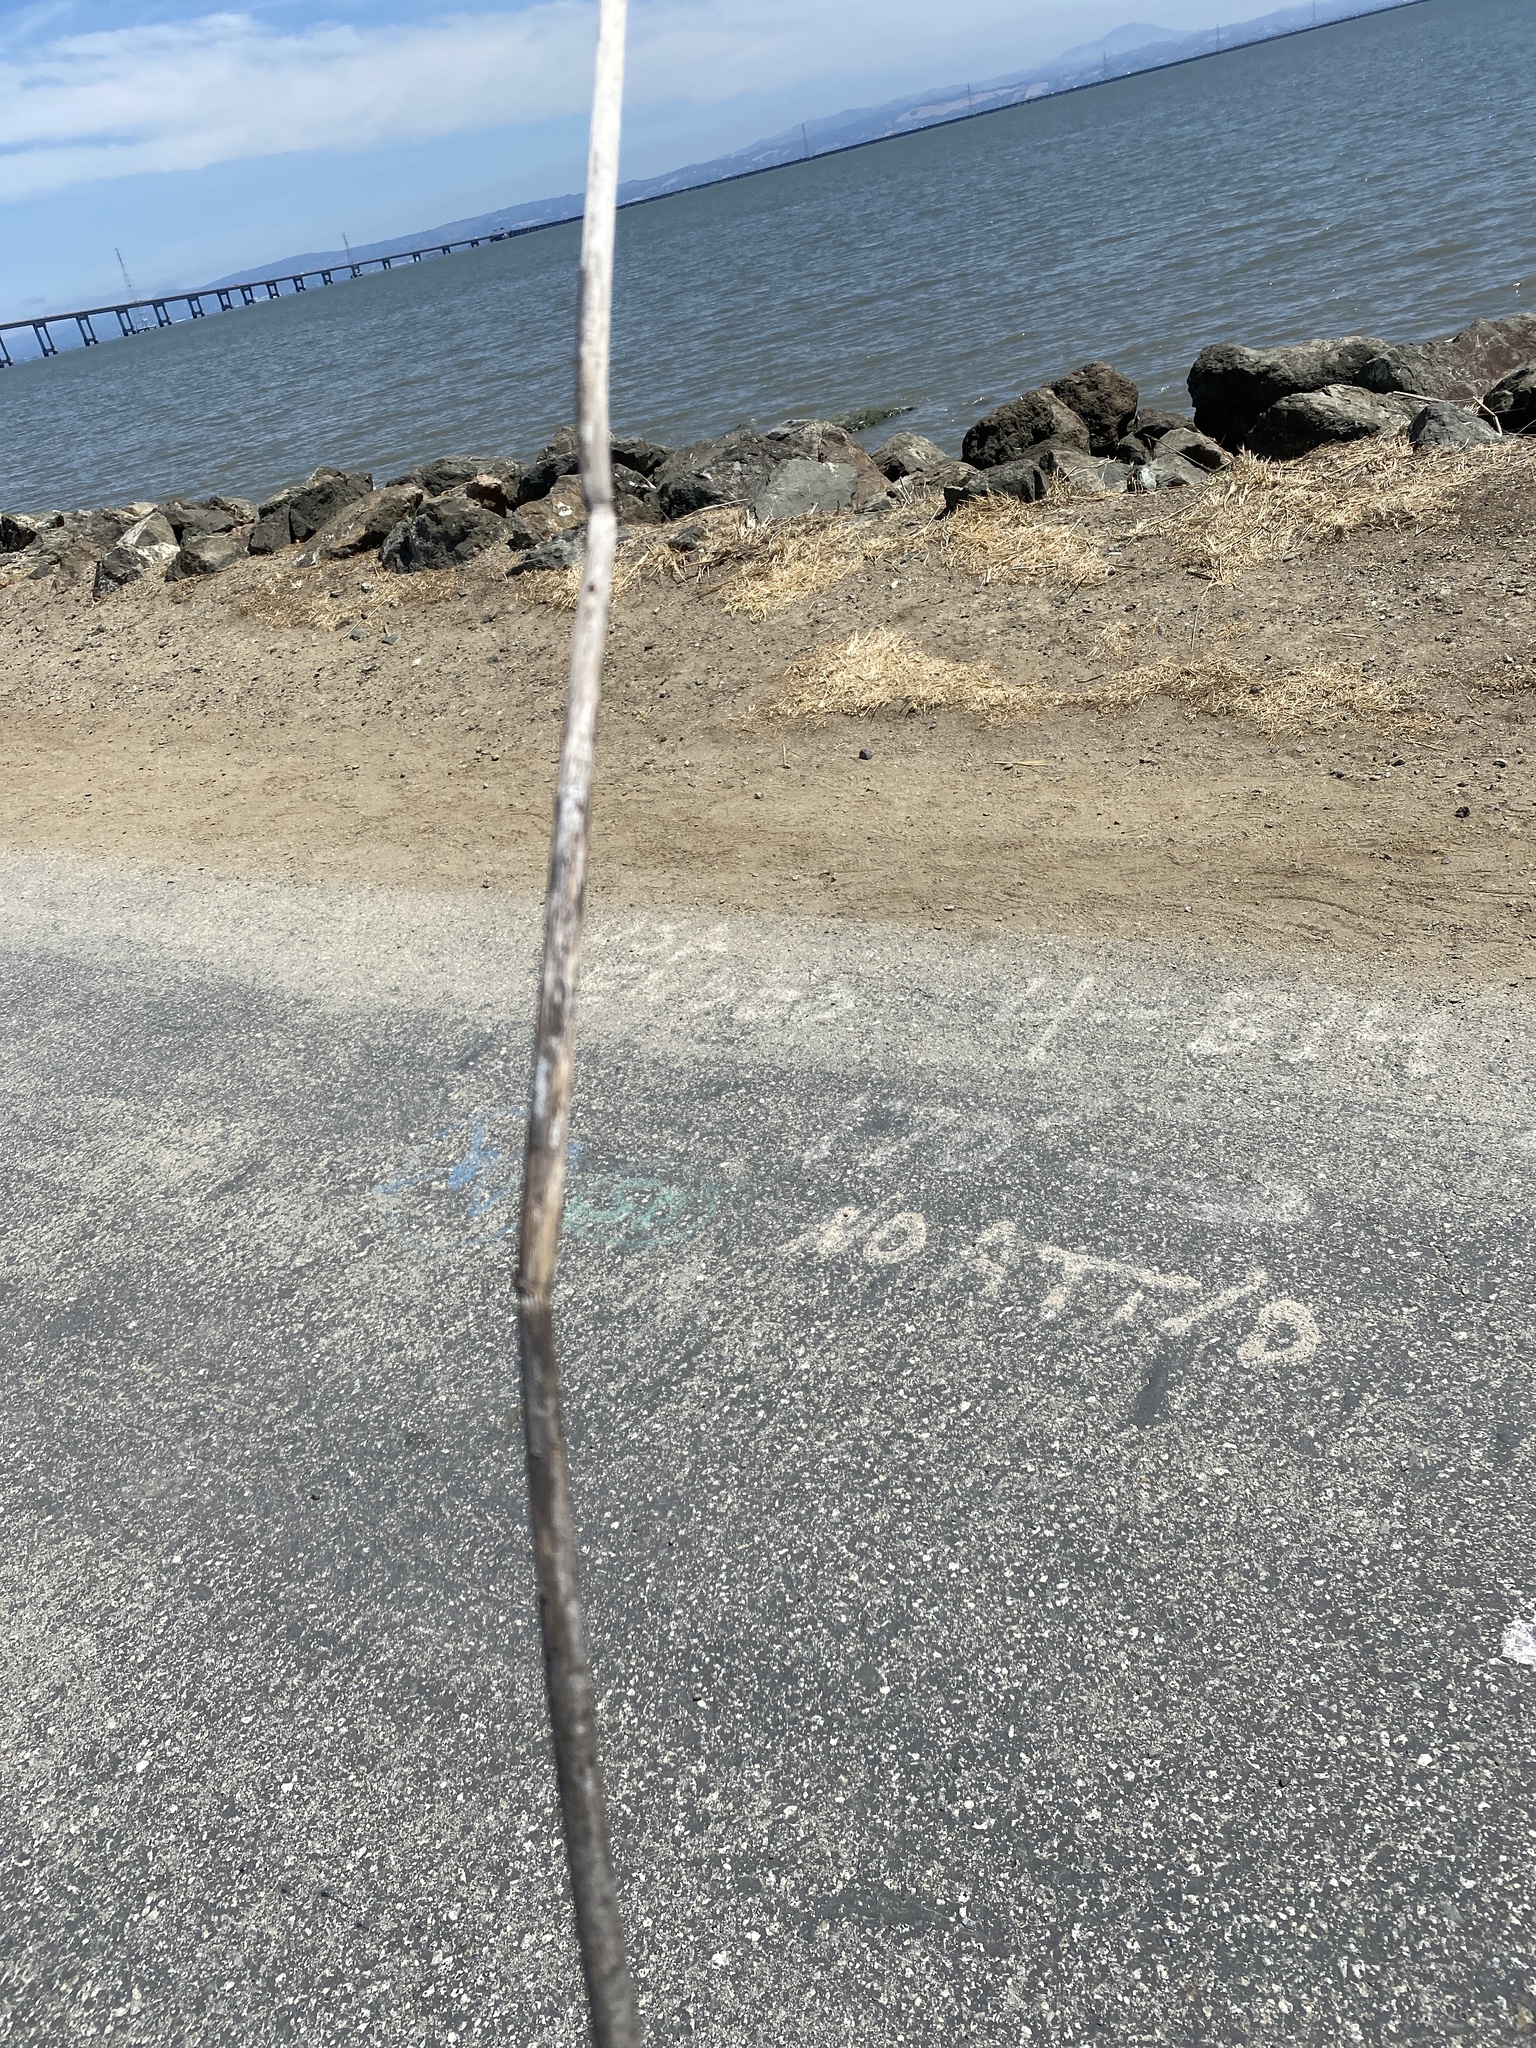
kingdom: Plantae
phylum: Tracheophyta
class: Magnoliopsida
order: Apiales
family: Apiaceae
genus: Foeniculum
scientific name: Foeniculum vulgare
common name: Fennel
